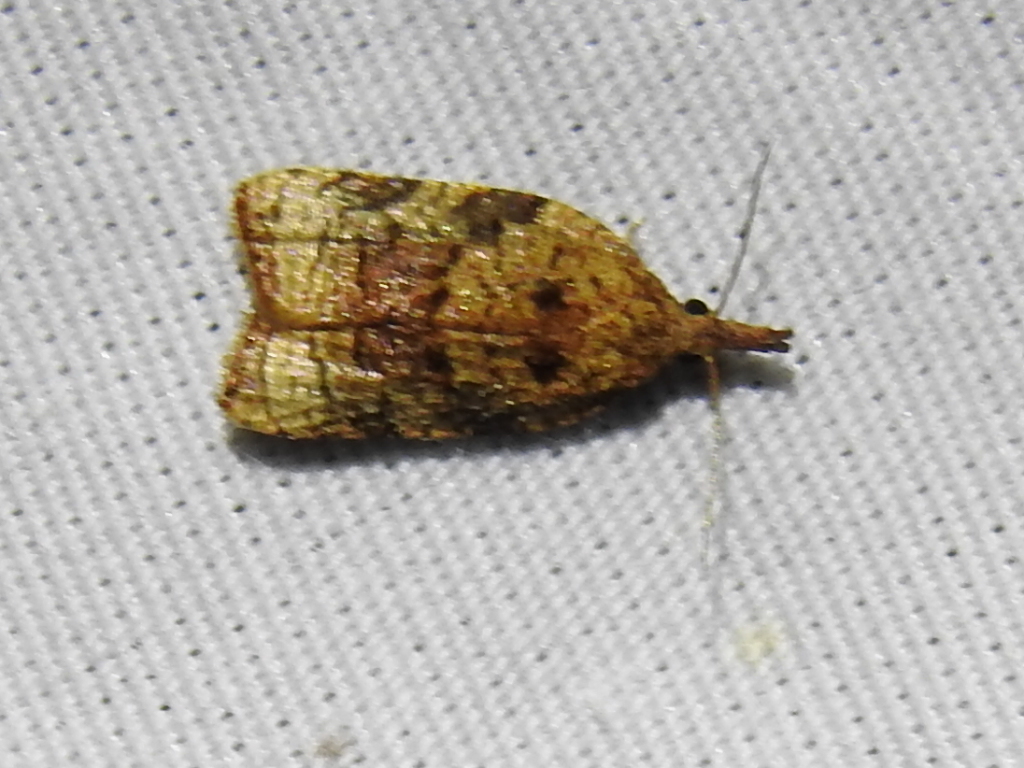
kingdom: Animalia
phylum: Arthropoda
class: Insecta
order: Lepidoptera
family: Tortricidae
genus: Platynota
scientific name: Platynota flavedana
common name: Black-shaded platynota moth
